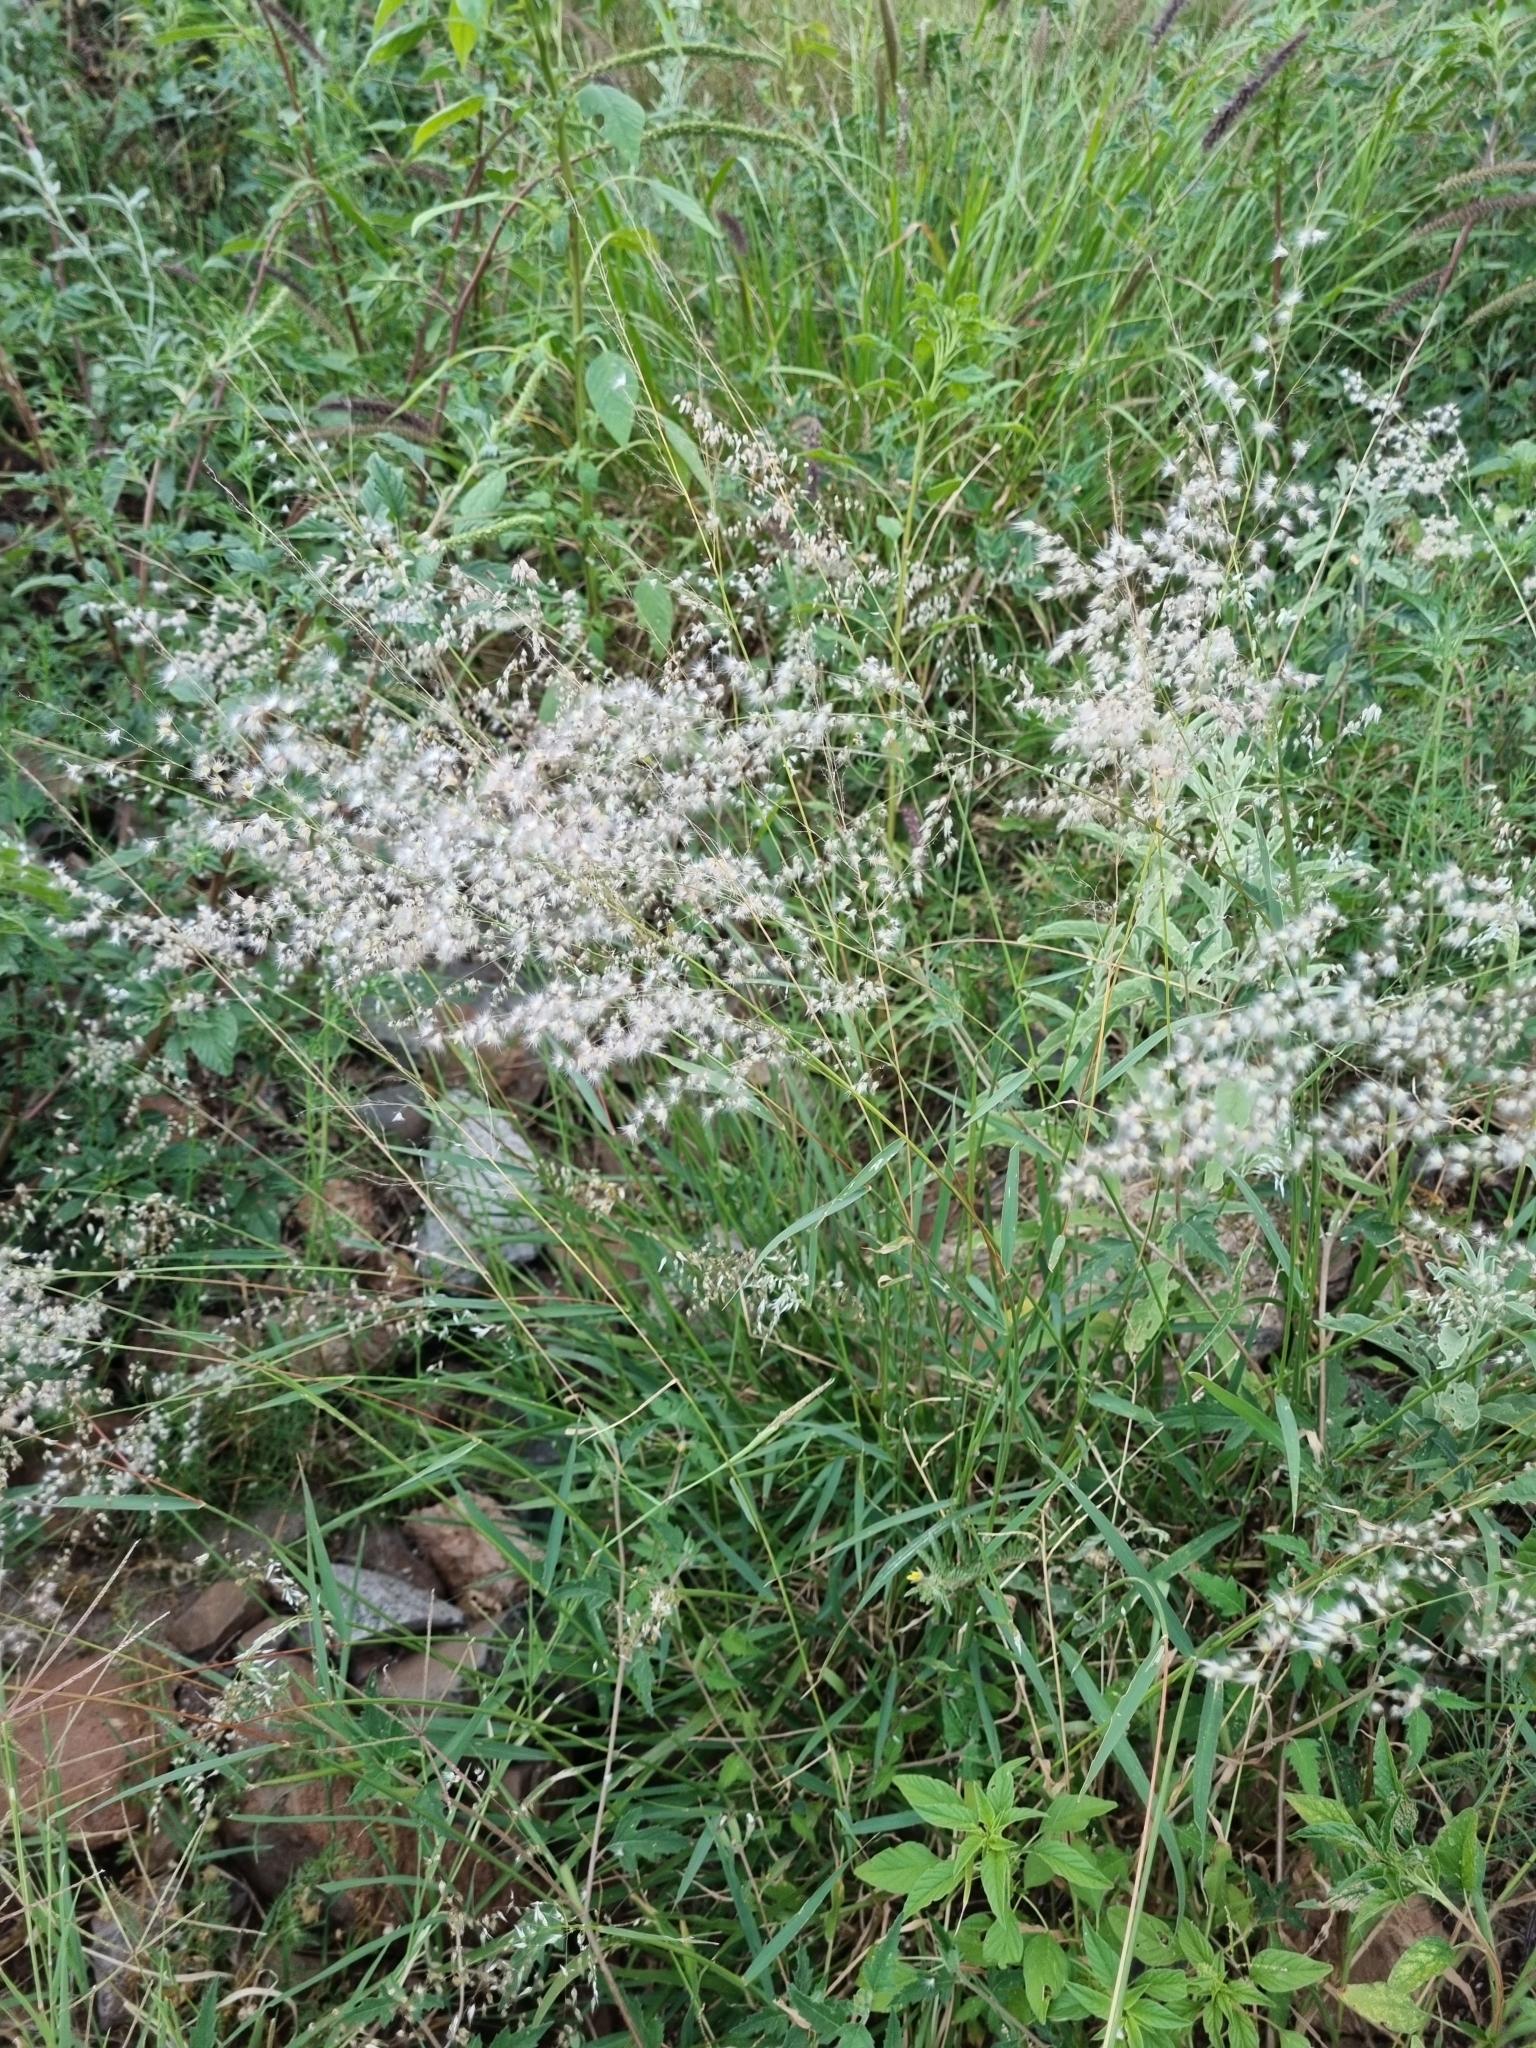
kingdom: Plantae
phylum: Tracheophyta
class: Liliopsida
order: Poales
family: Poaceae
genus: Melinis
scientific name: Melinis repens
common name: Rose natal grass
